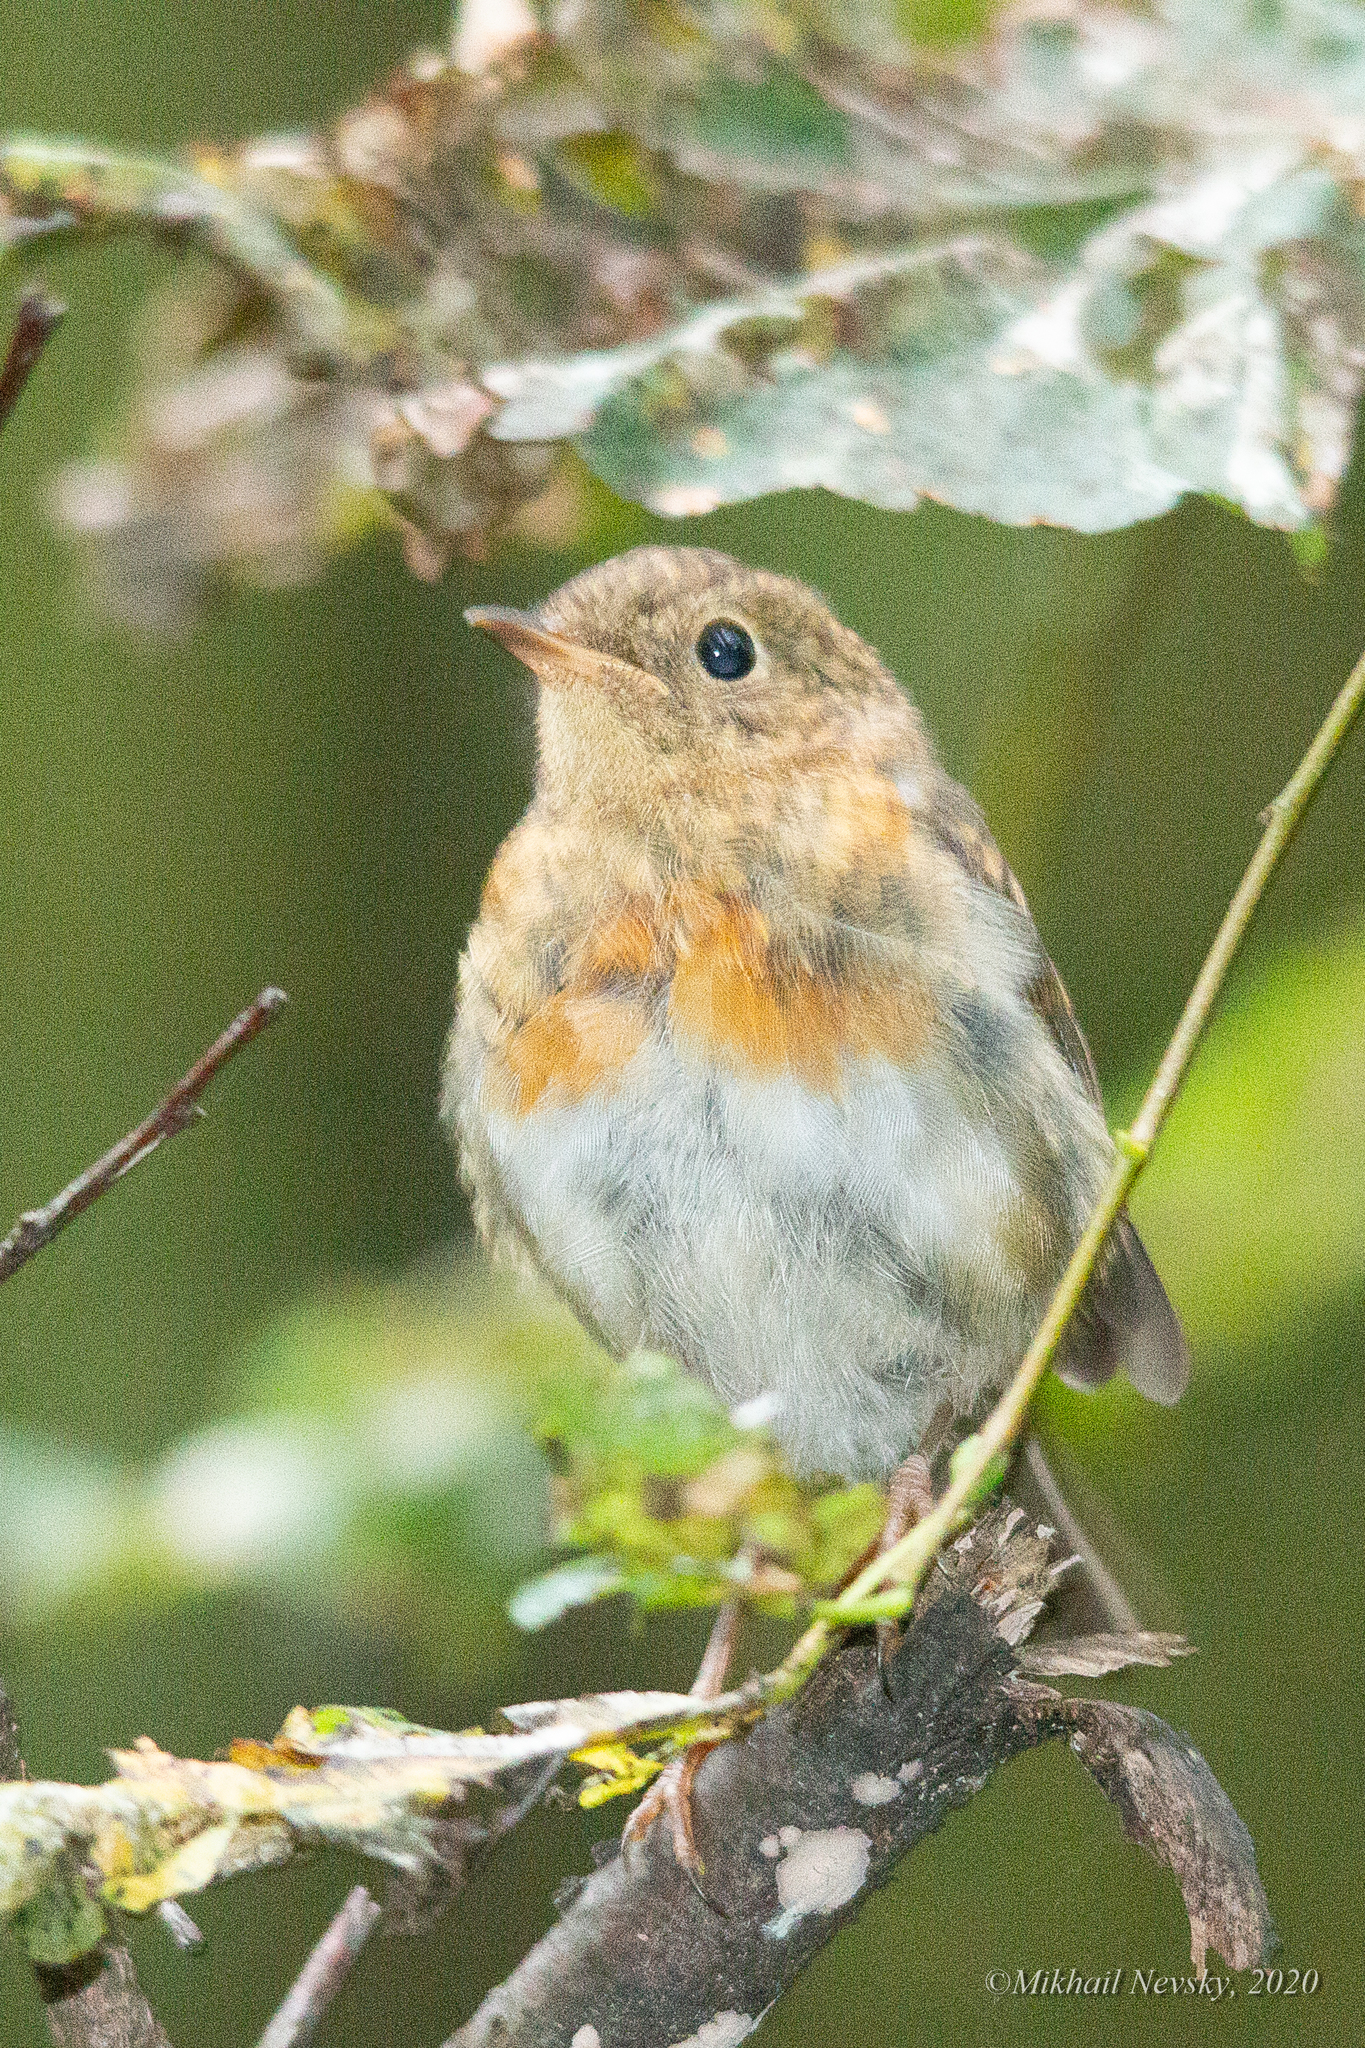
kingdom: Animalia
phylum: Chordata
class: Aves
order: Passeriformes
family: Muscicapidae
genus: Erithacus
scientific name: Erithacus rubecula
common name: European robin
